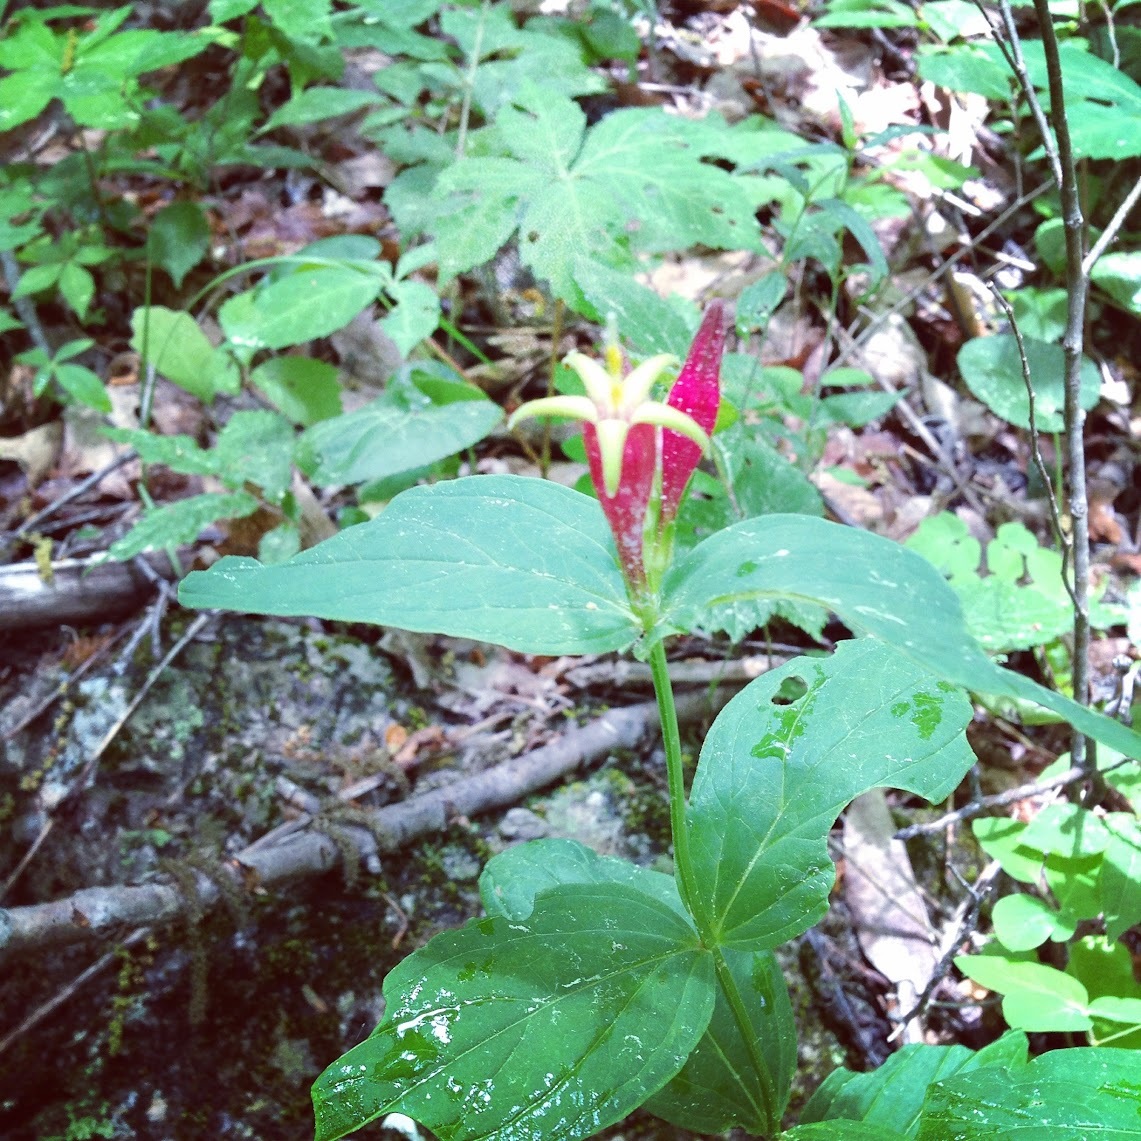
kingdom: Plantae
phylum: Tracheophyta
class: Magnoliopsida
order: Gentianales
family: Loganiaceae
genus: Spigelia
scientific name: Spigelia marilandica
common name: Indian-pink
